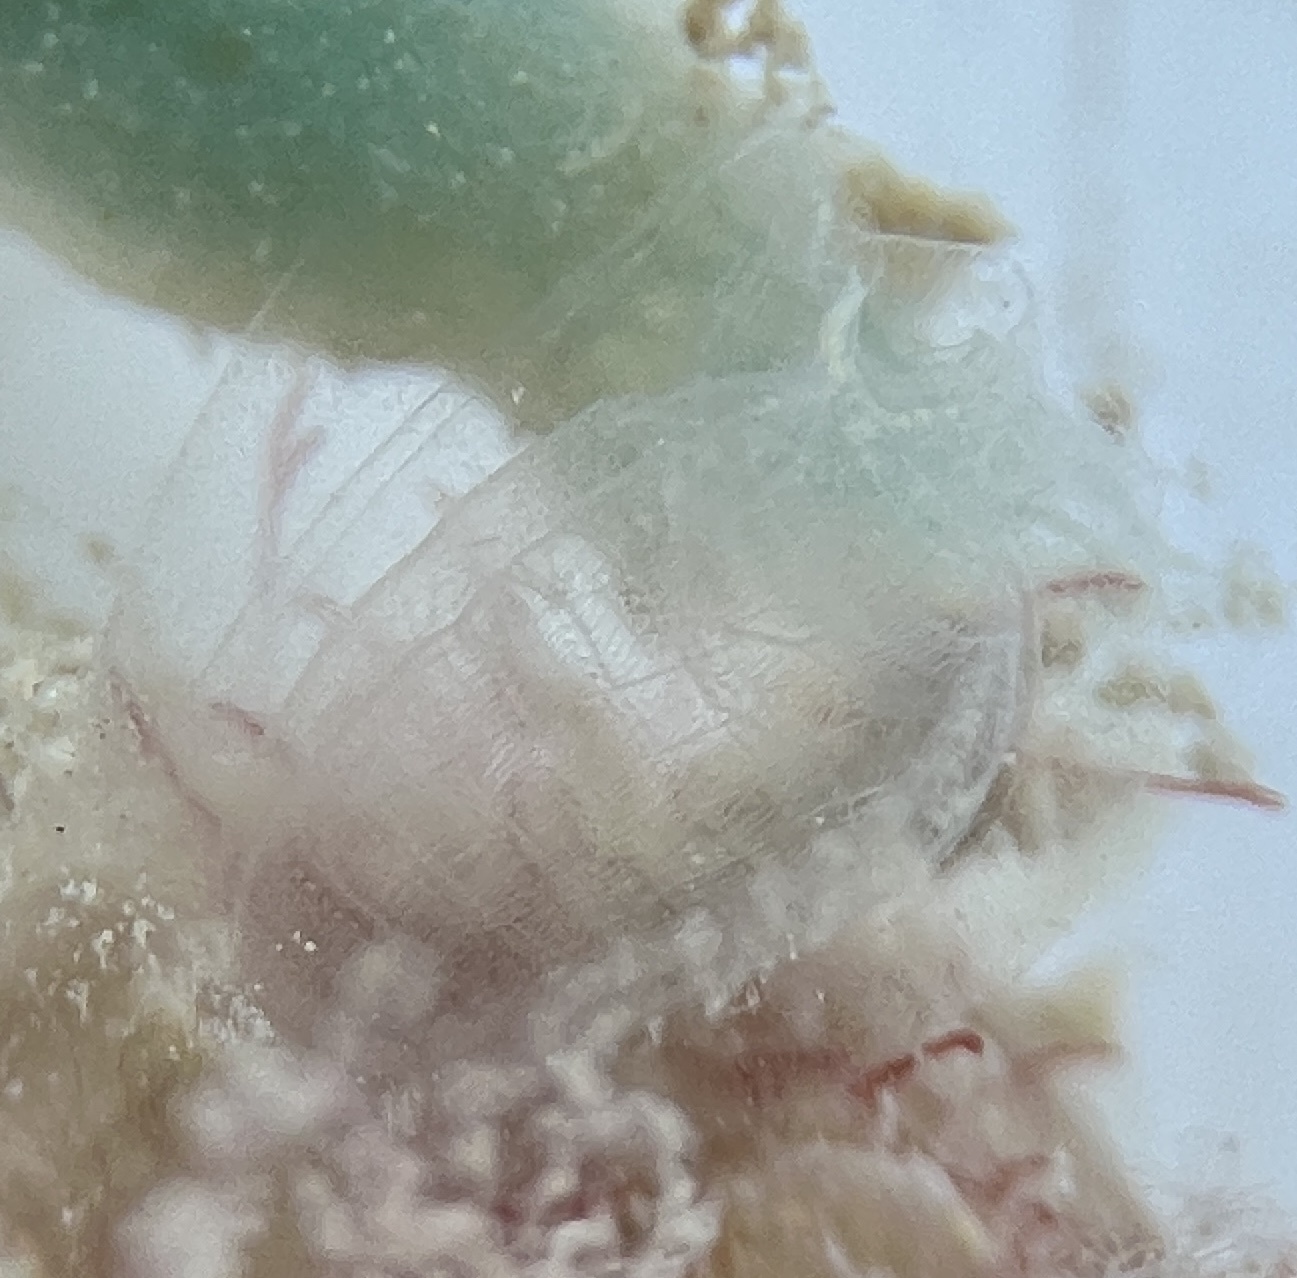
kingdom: Animalia
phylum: Chordata
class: Ascidiacea
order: Aplousobranchia
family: Clavelinidae
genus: Clavelina
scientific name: Clavelina oblonga
